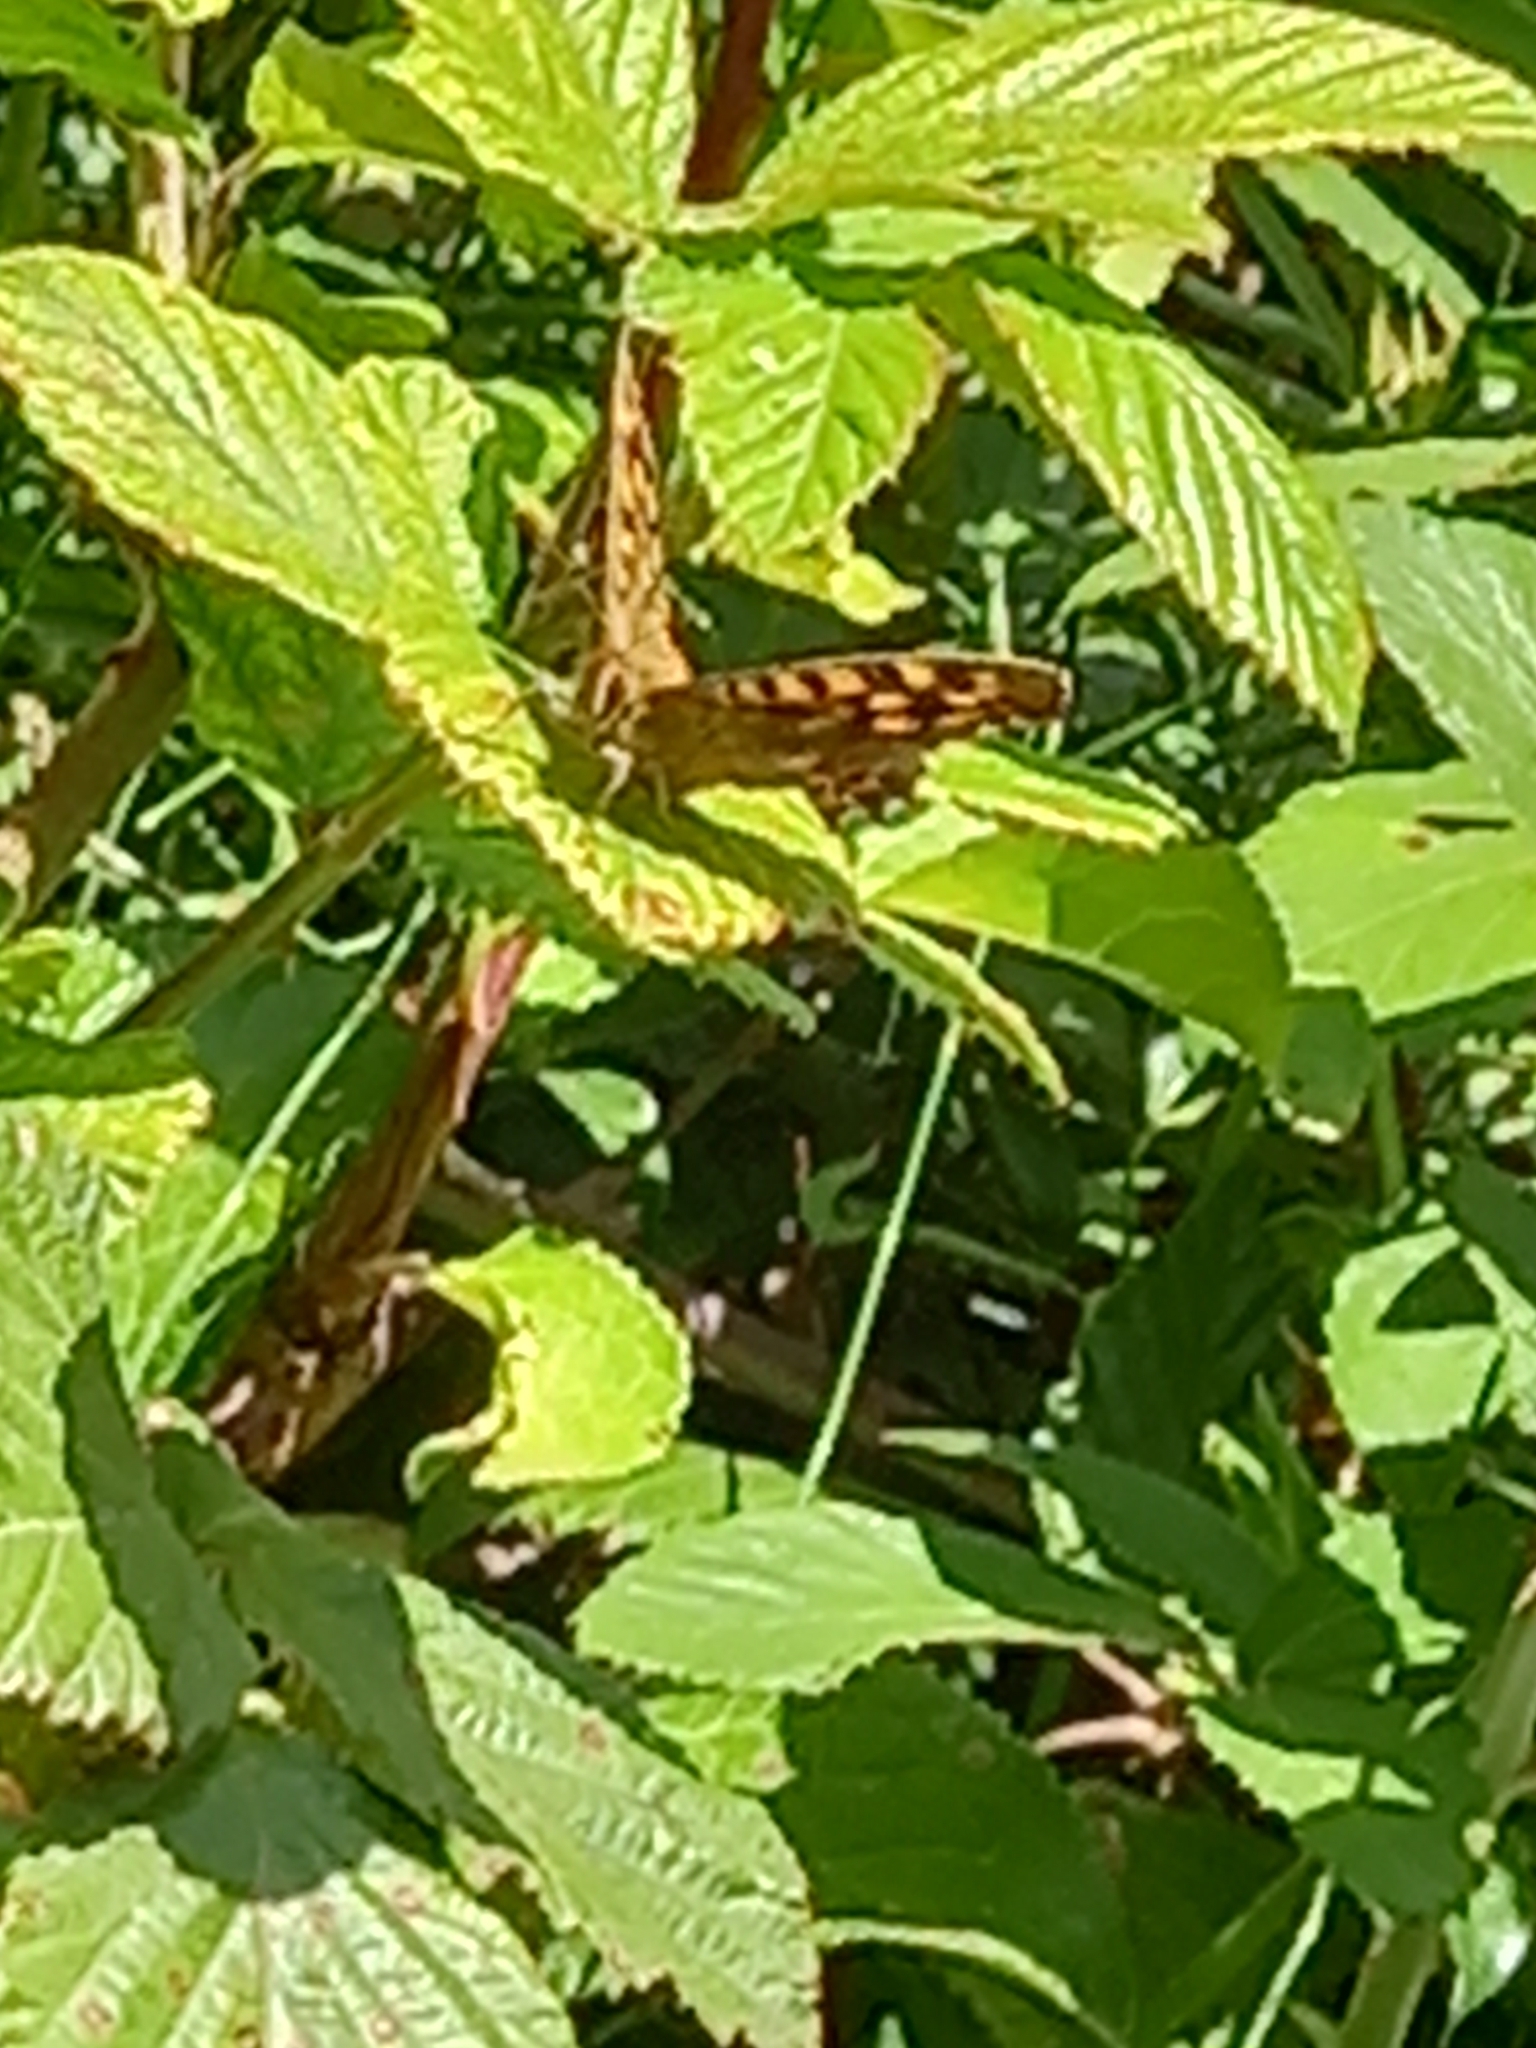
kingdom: Animalia
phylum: Arthropoda
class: Insecta
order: Lepidoptera
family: Nymphalidae
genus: Pararge
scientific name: Pararge aegeria
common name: Speckled wood
